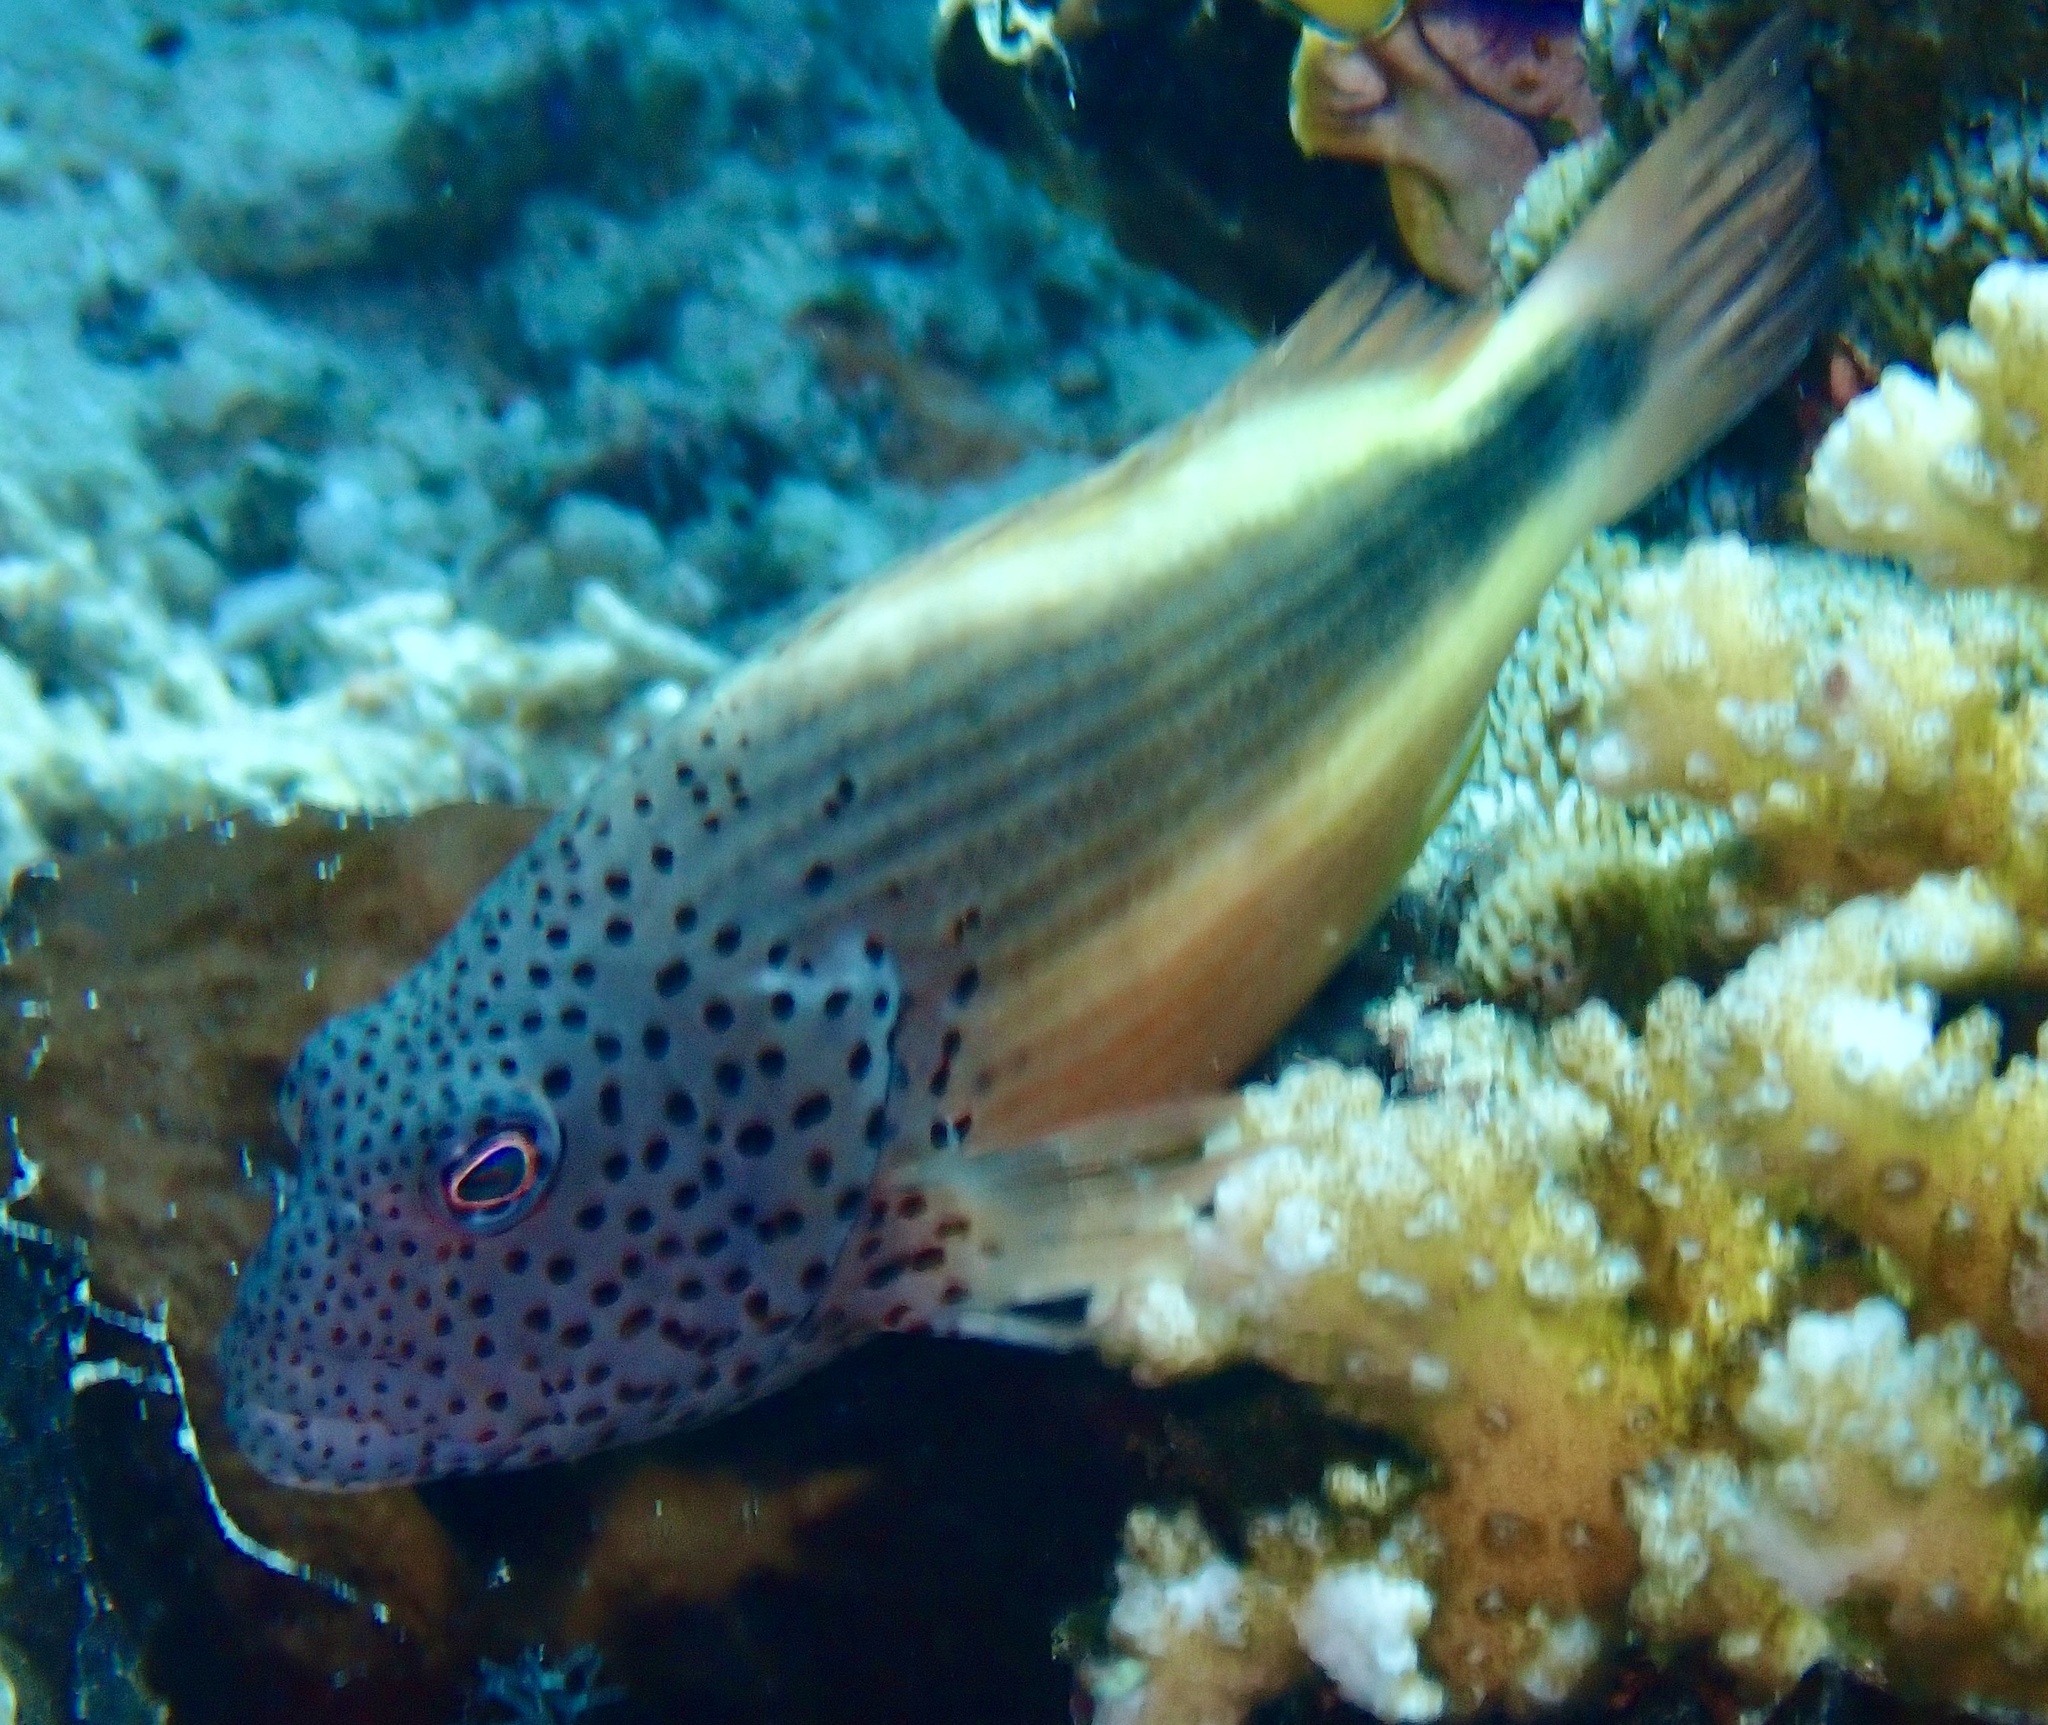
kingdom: Animalia
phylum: Chordata
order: Perciformes
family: Cirrhitidae
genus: Paracirrhites
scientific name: Paracirrhites forsteri
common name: Freckled hawkfish
